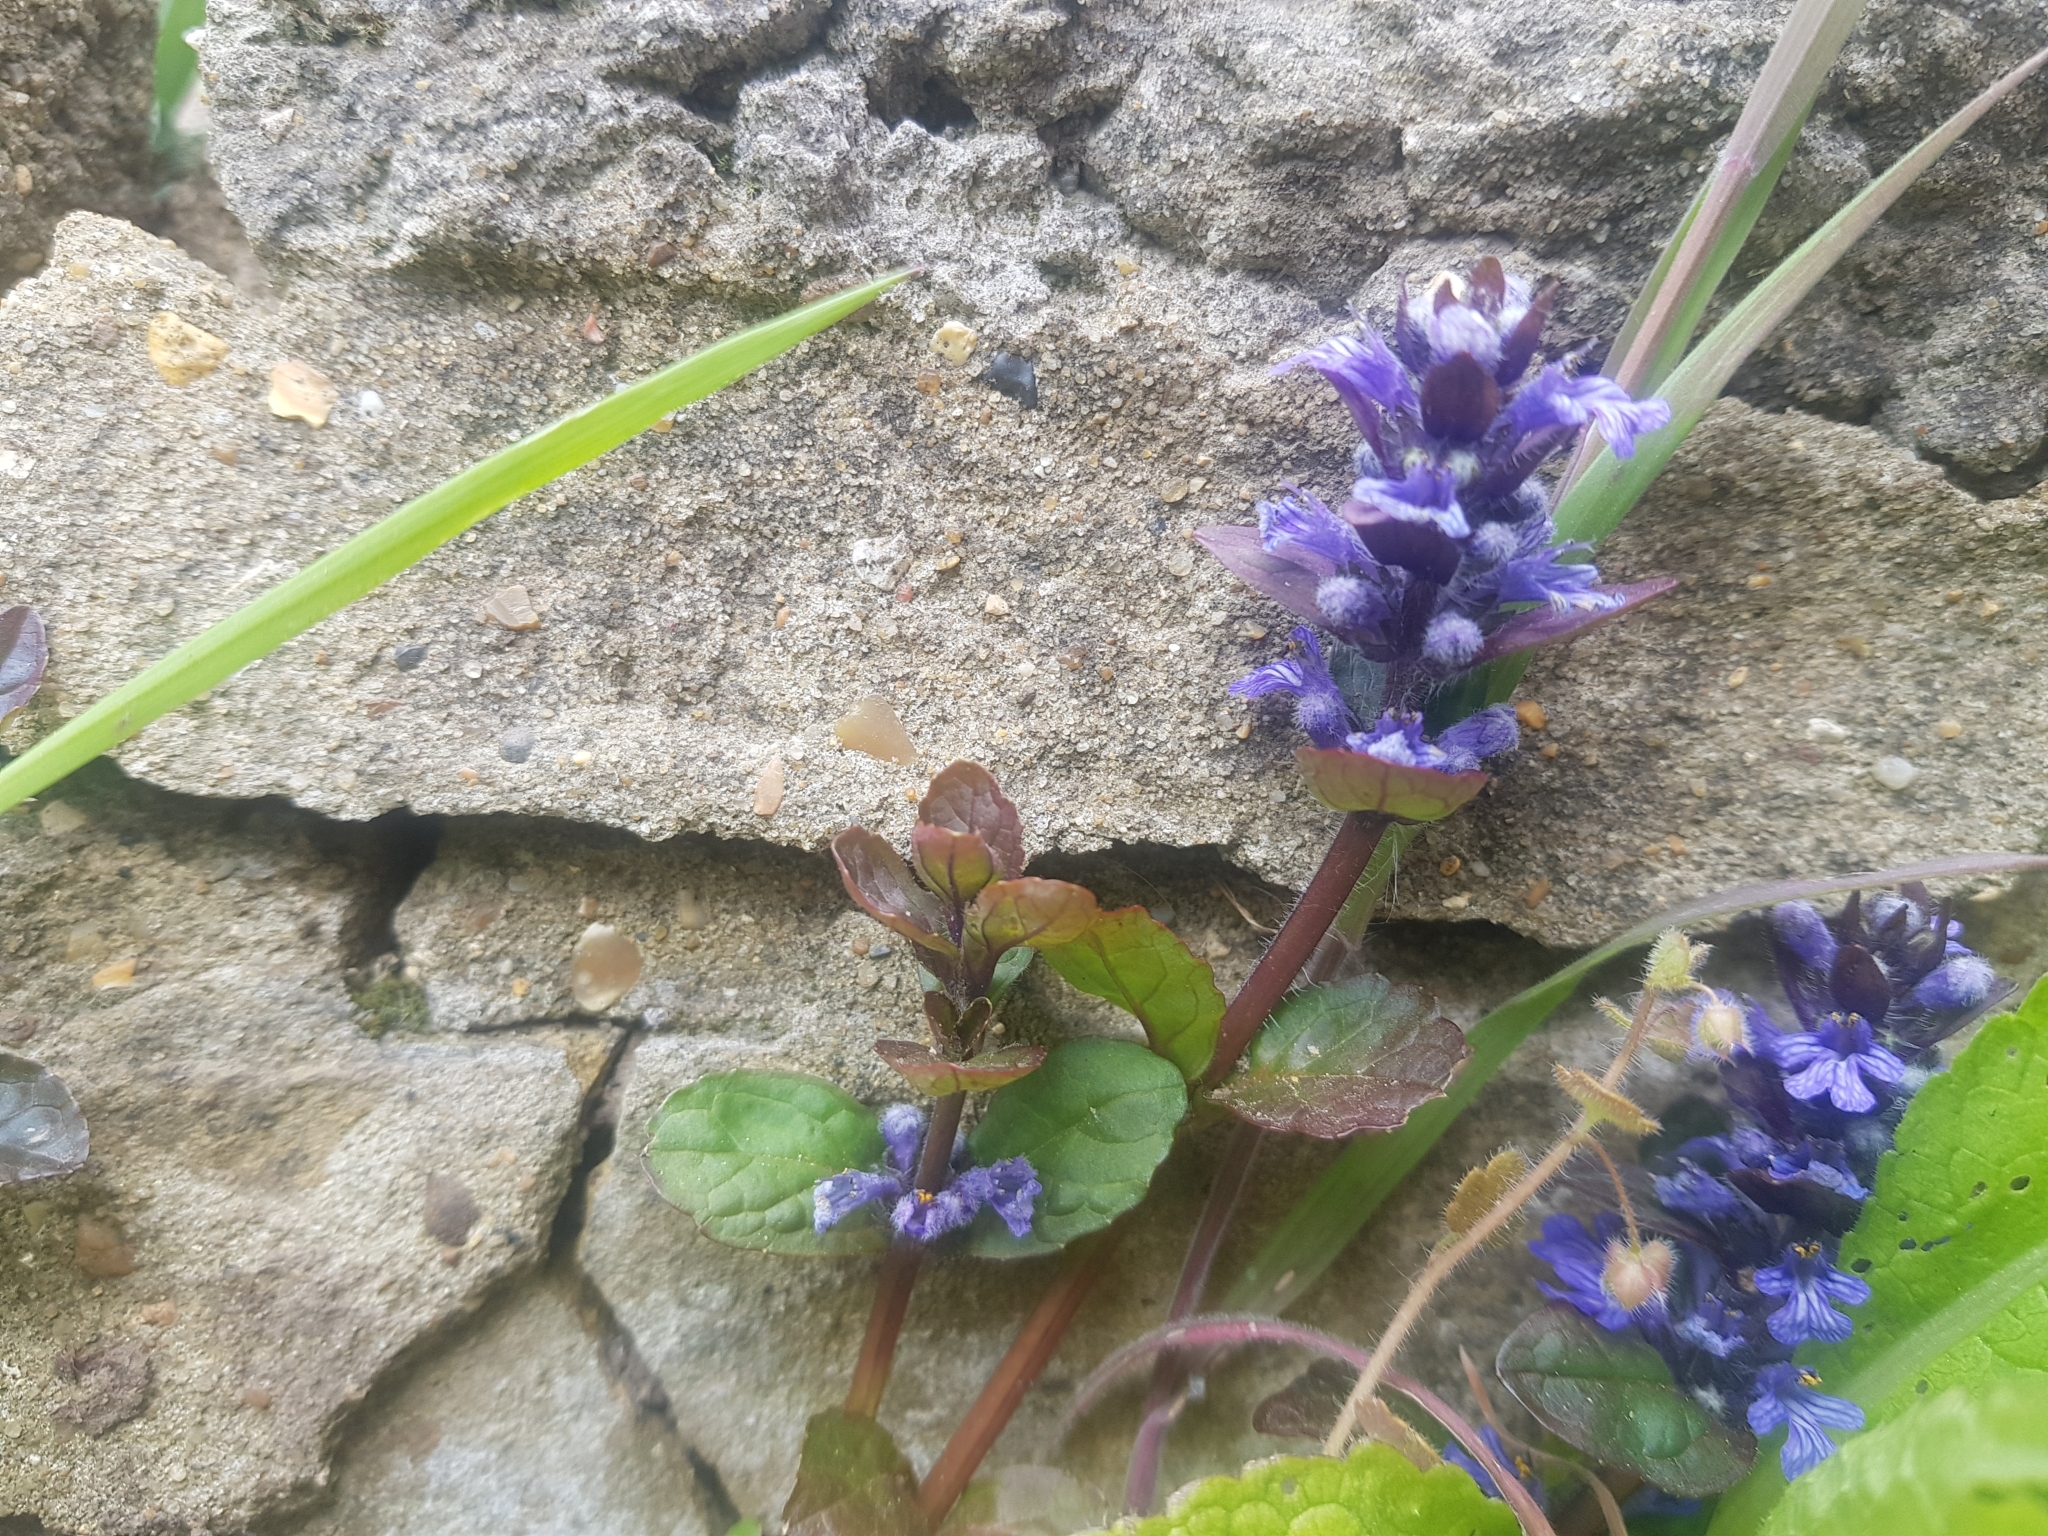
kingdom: Plantae
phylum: Tracheophyta
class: Magnoliopsida
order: Lamiales
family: Lamiaceae
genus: Ajuga
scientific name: Ajuga reptans
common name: Bugle
